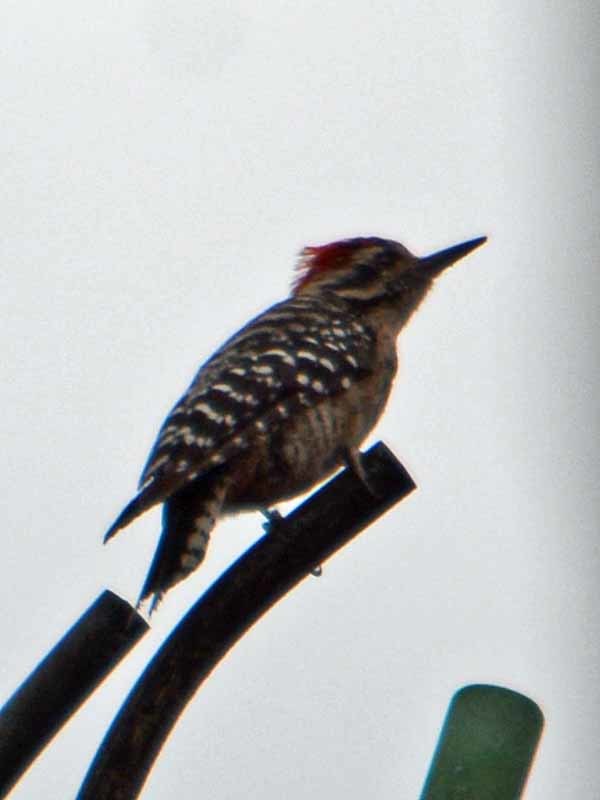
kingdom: Animalia
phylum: Chordata
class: Aves
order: Piciformes
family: Picidae
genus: Dryobates
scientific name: Dryobates scalaris
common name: Ladder-backed woodpecker
